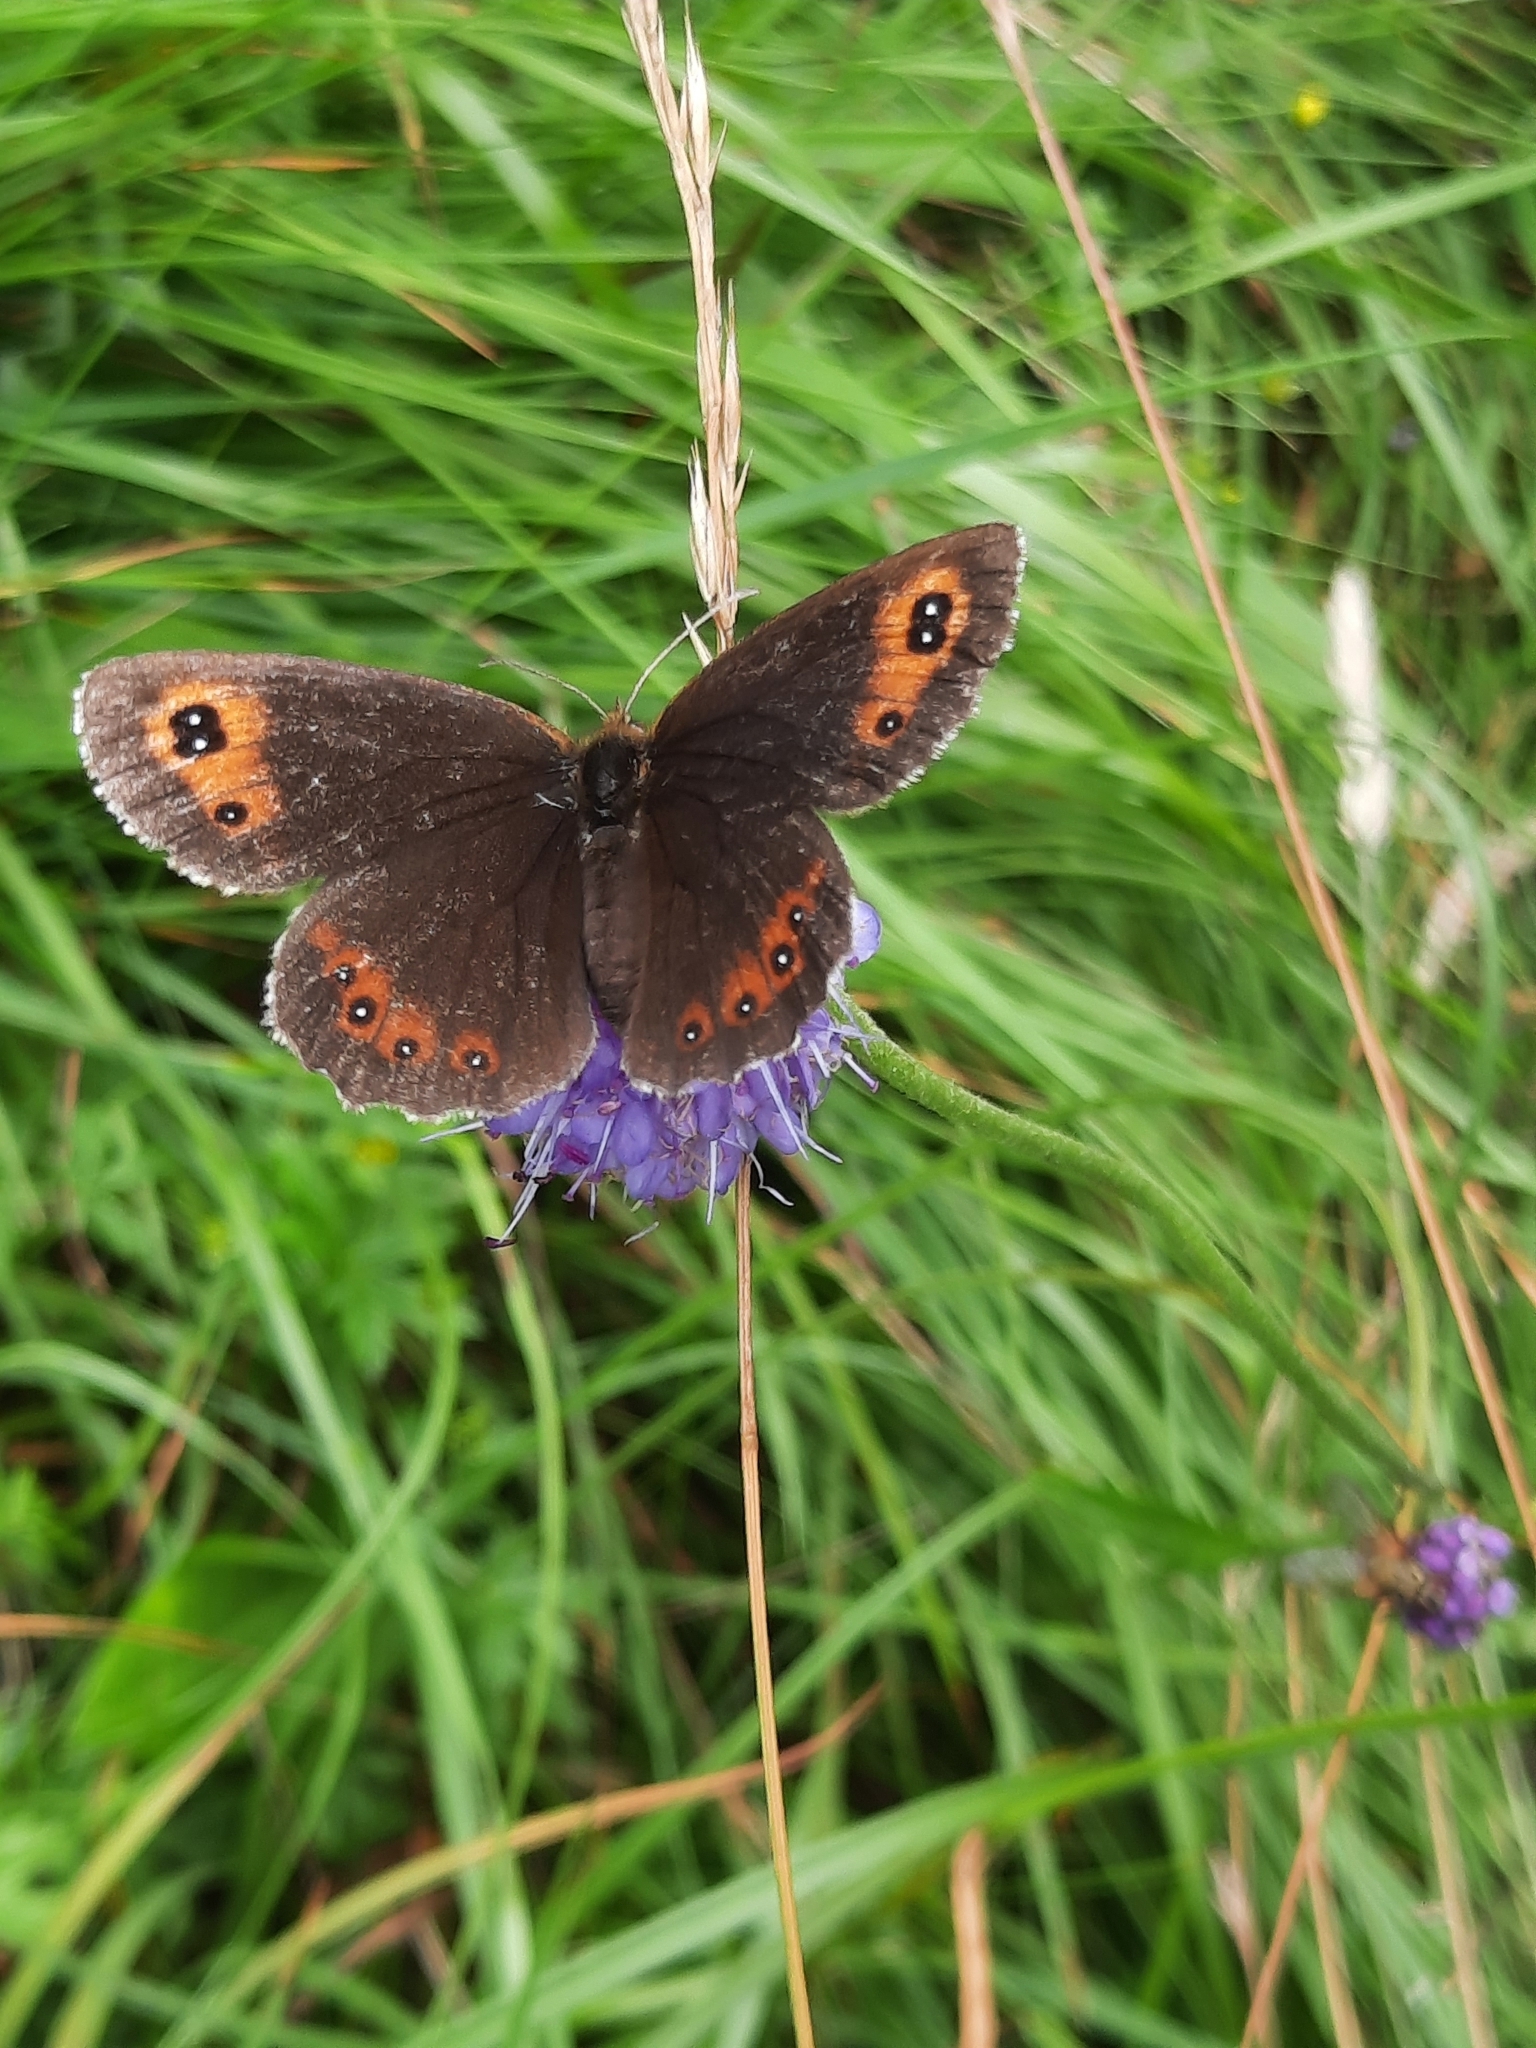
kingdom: Animalia
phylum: Arthropoda
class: Insecta
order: Lepidoptera
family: Nymphalidae
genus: Erebia
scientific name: Erebia aethiops
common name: Scotch argus
